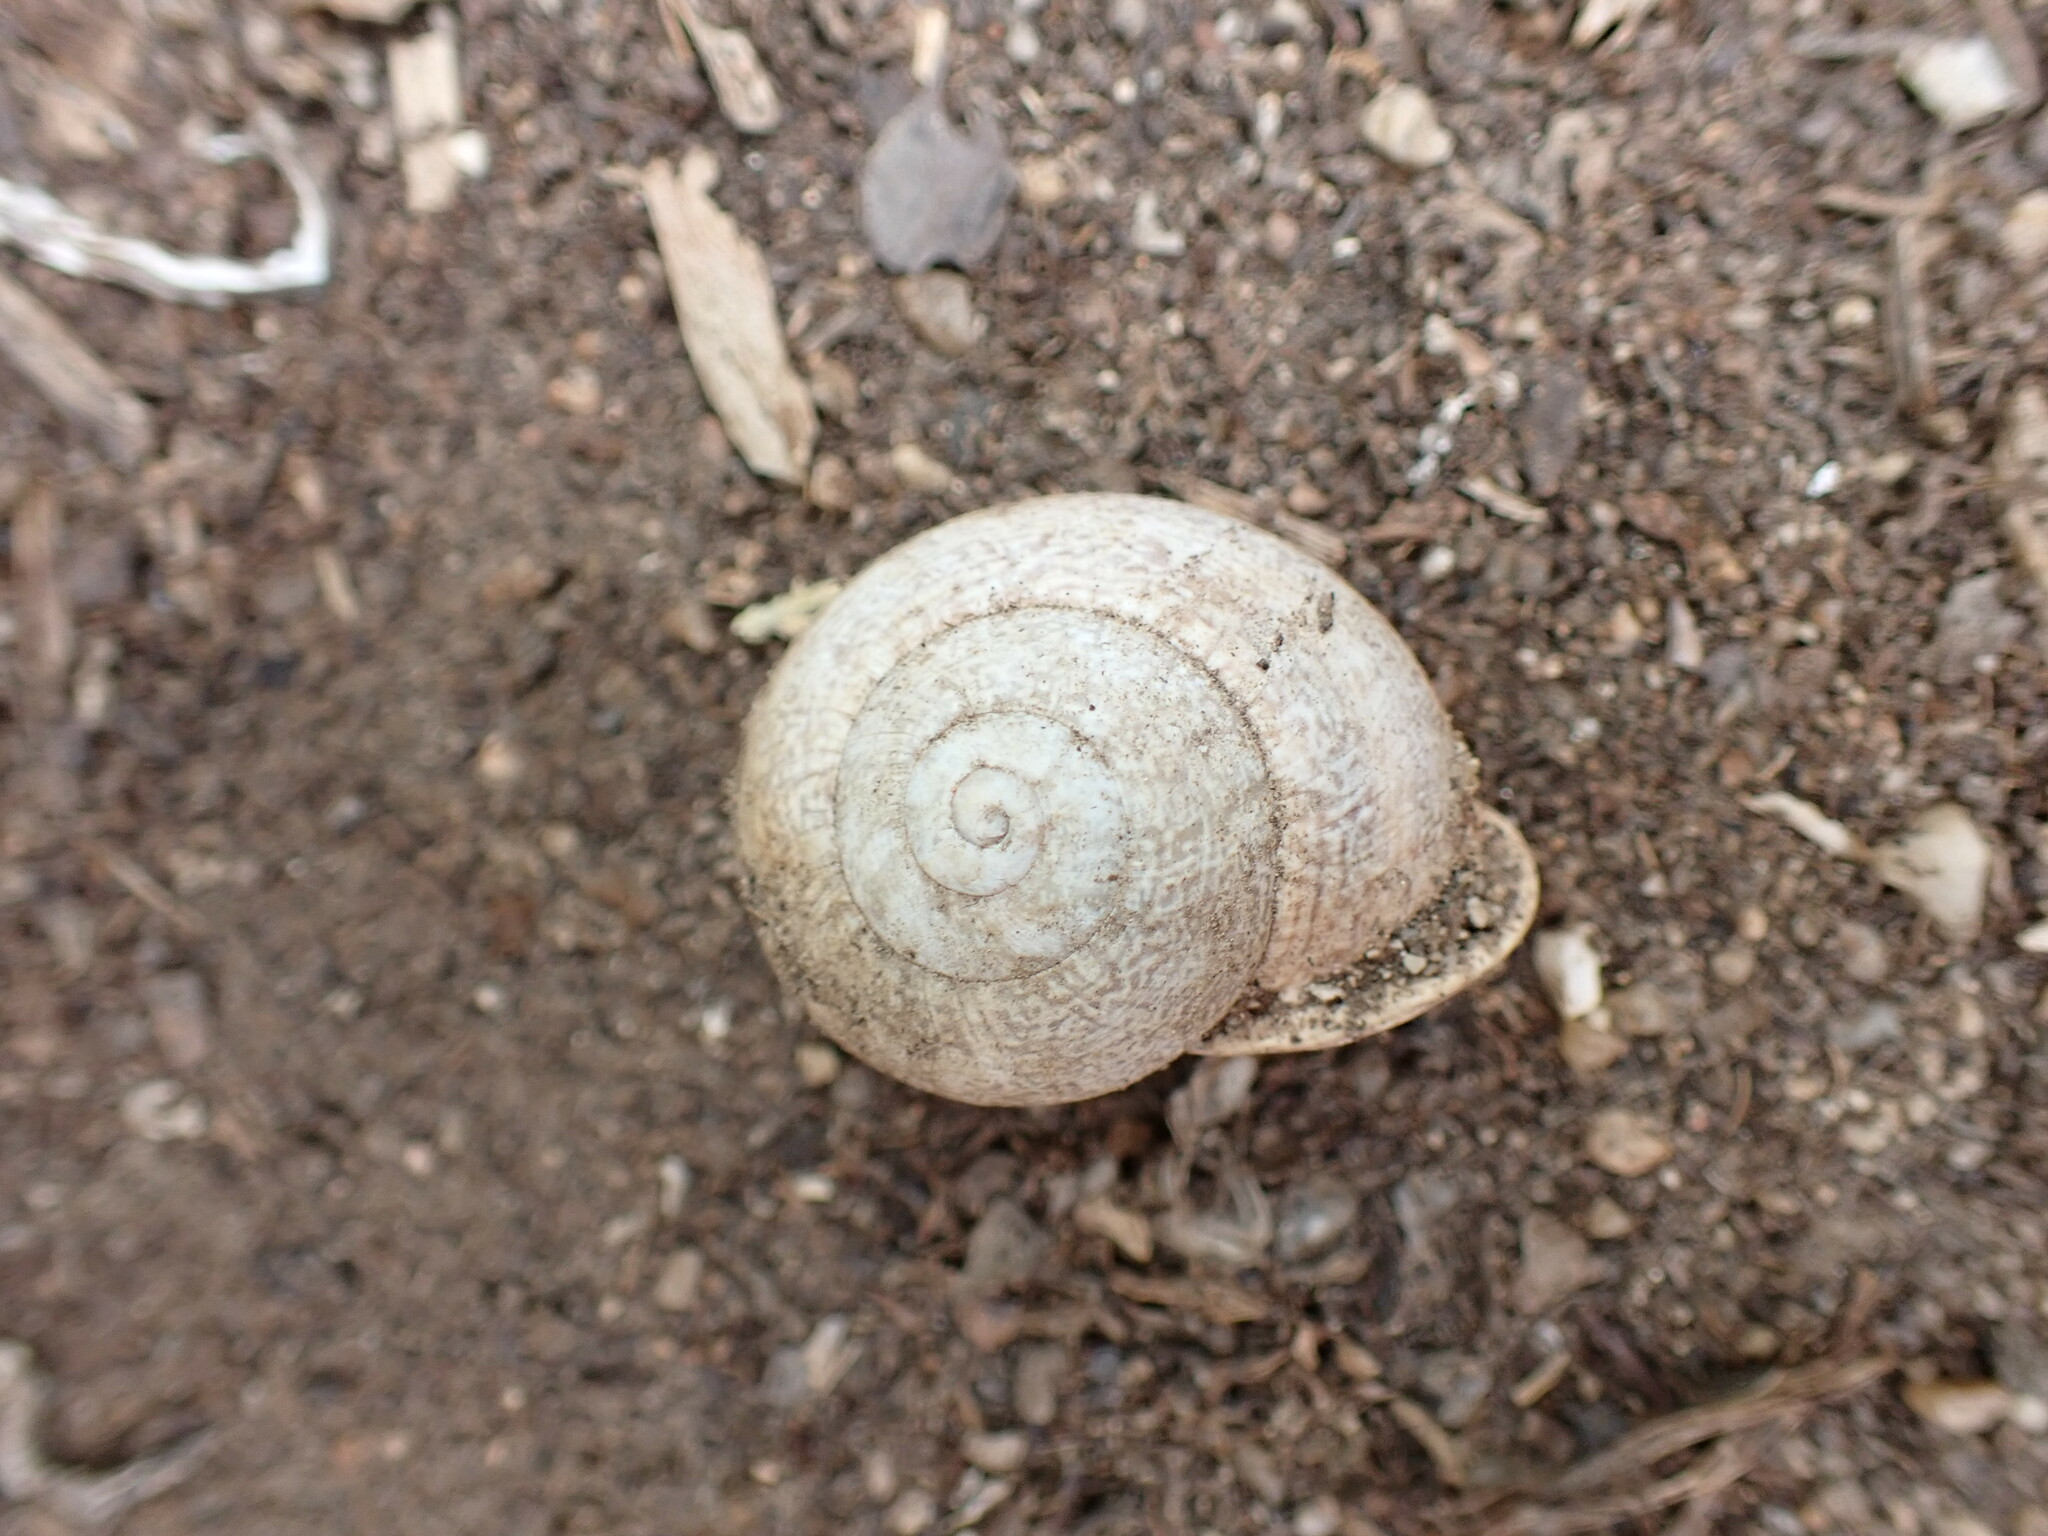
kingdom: Animalia
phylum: Mollusca
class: Gastropoda
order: Stylommatophora
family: Helicidae
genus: Otala
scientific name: Otala lactea
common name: Milk snail
